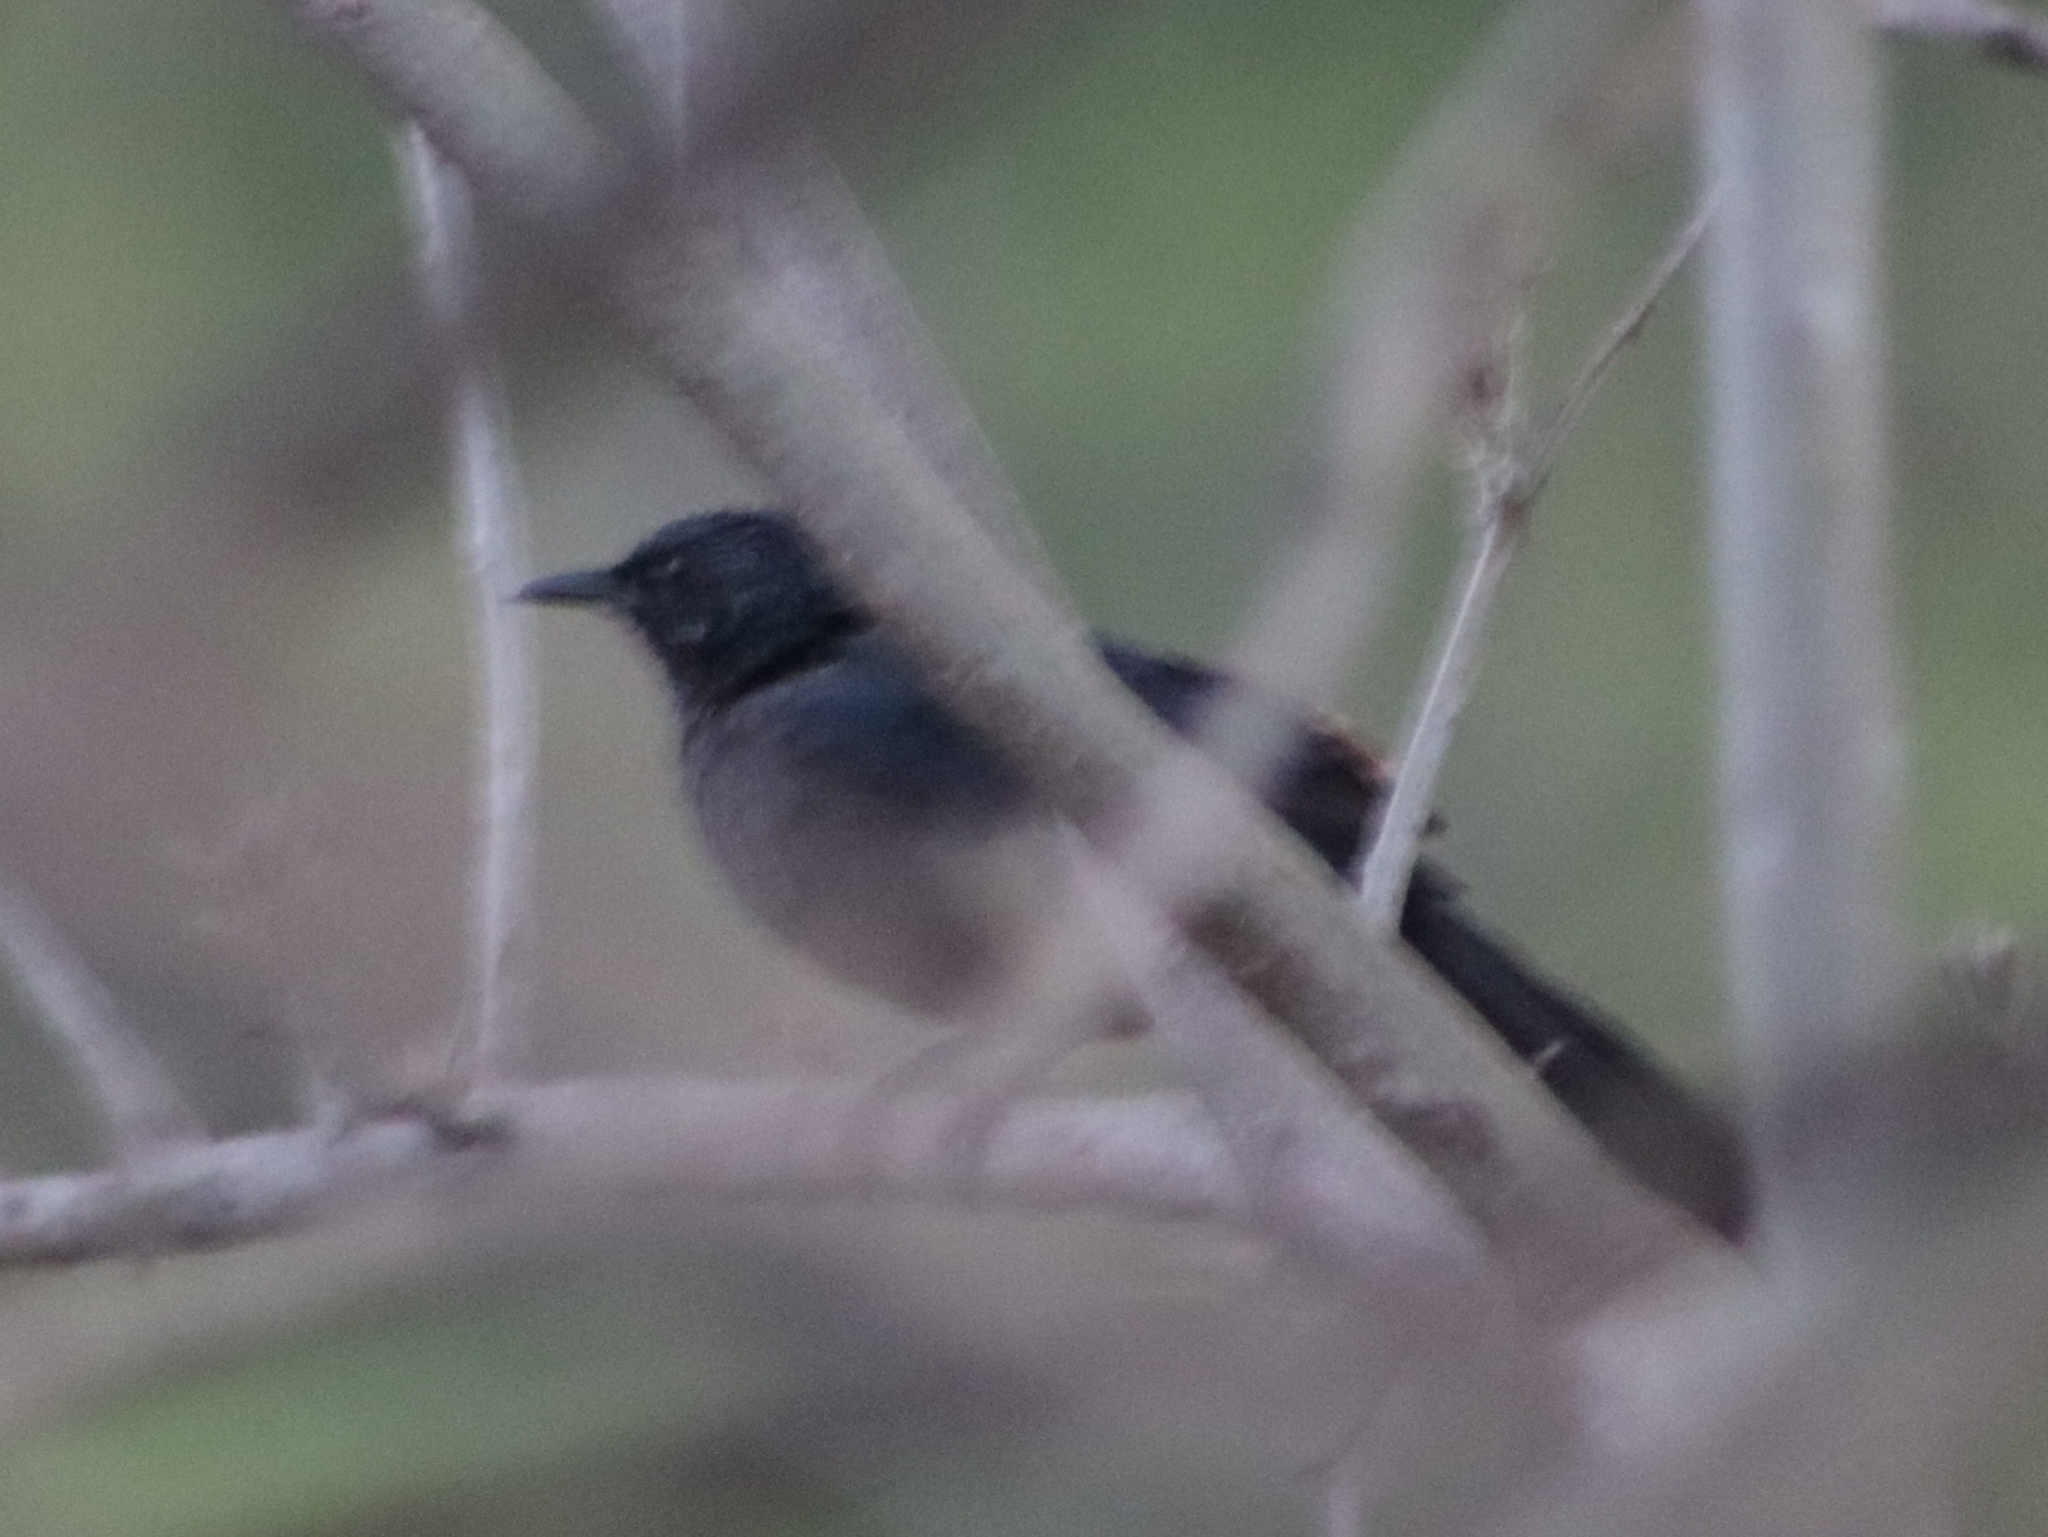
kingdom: Animalia
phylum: Chordata
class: Aves
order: Passeriformes
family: Mimidae
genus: Melanotis
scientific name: Melanotis caerulescens
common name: Blue mockingbird
